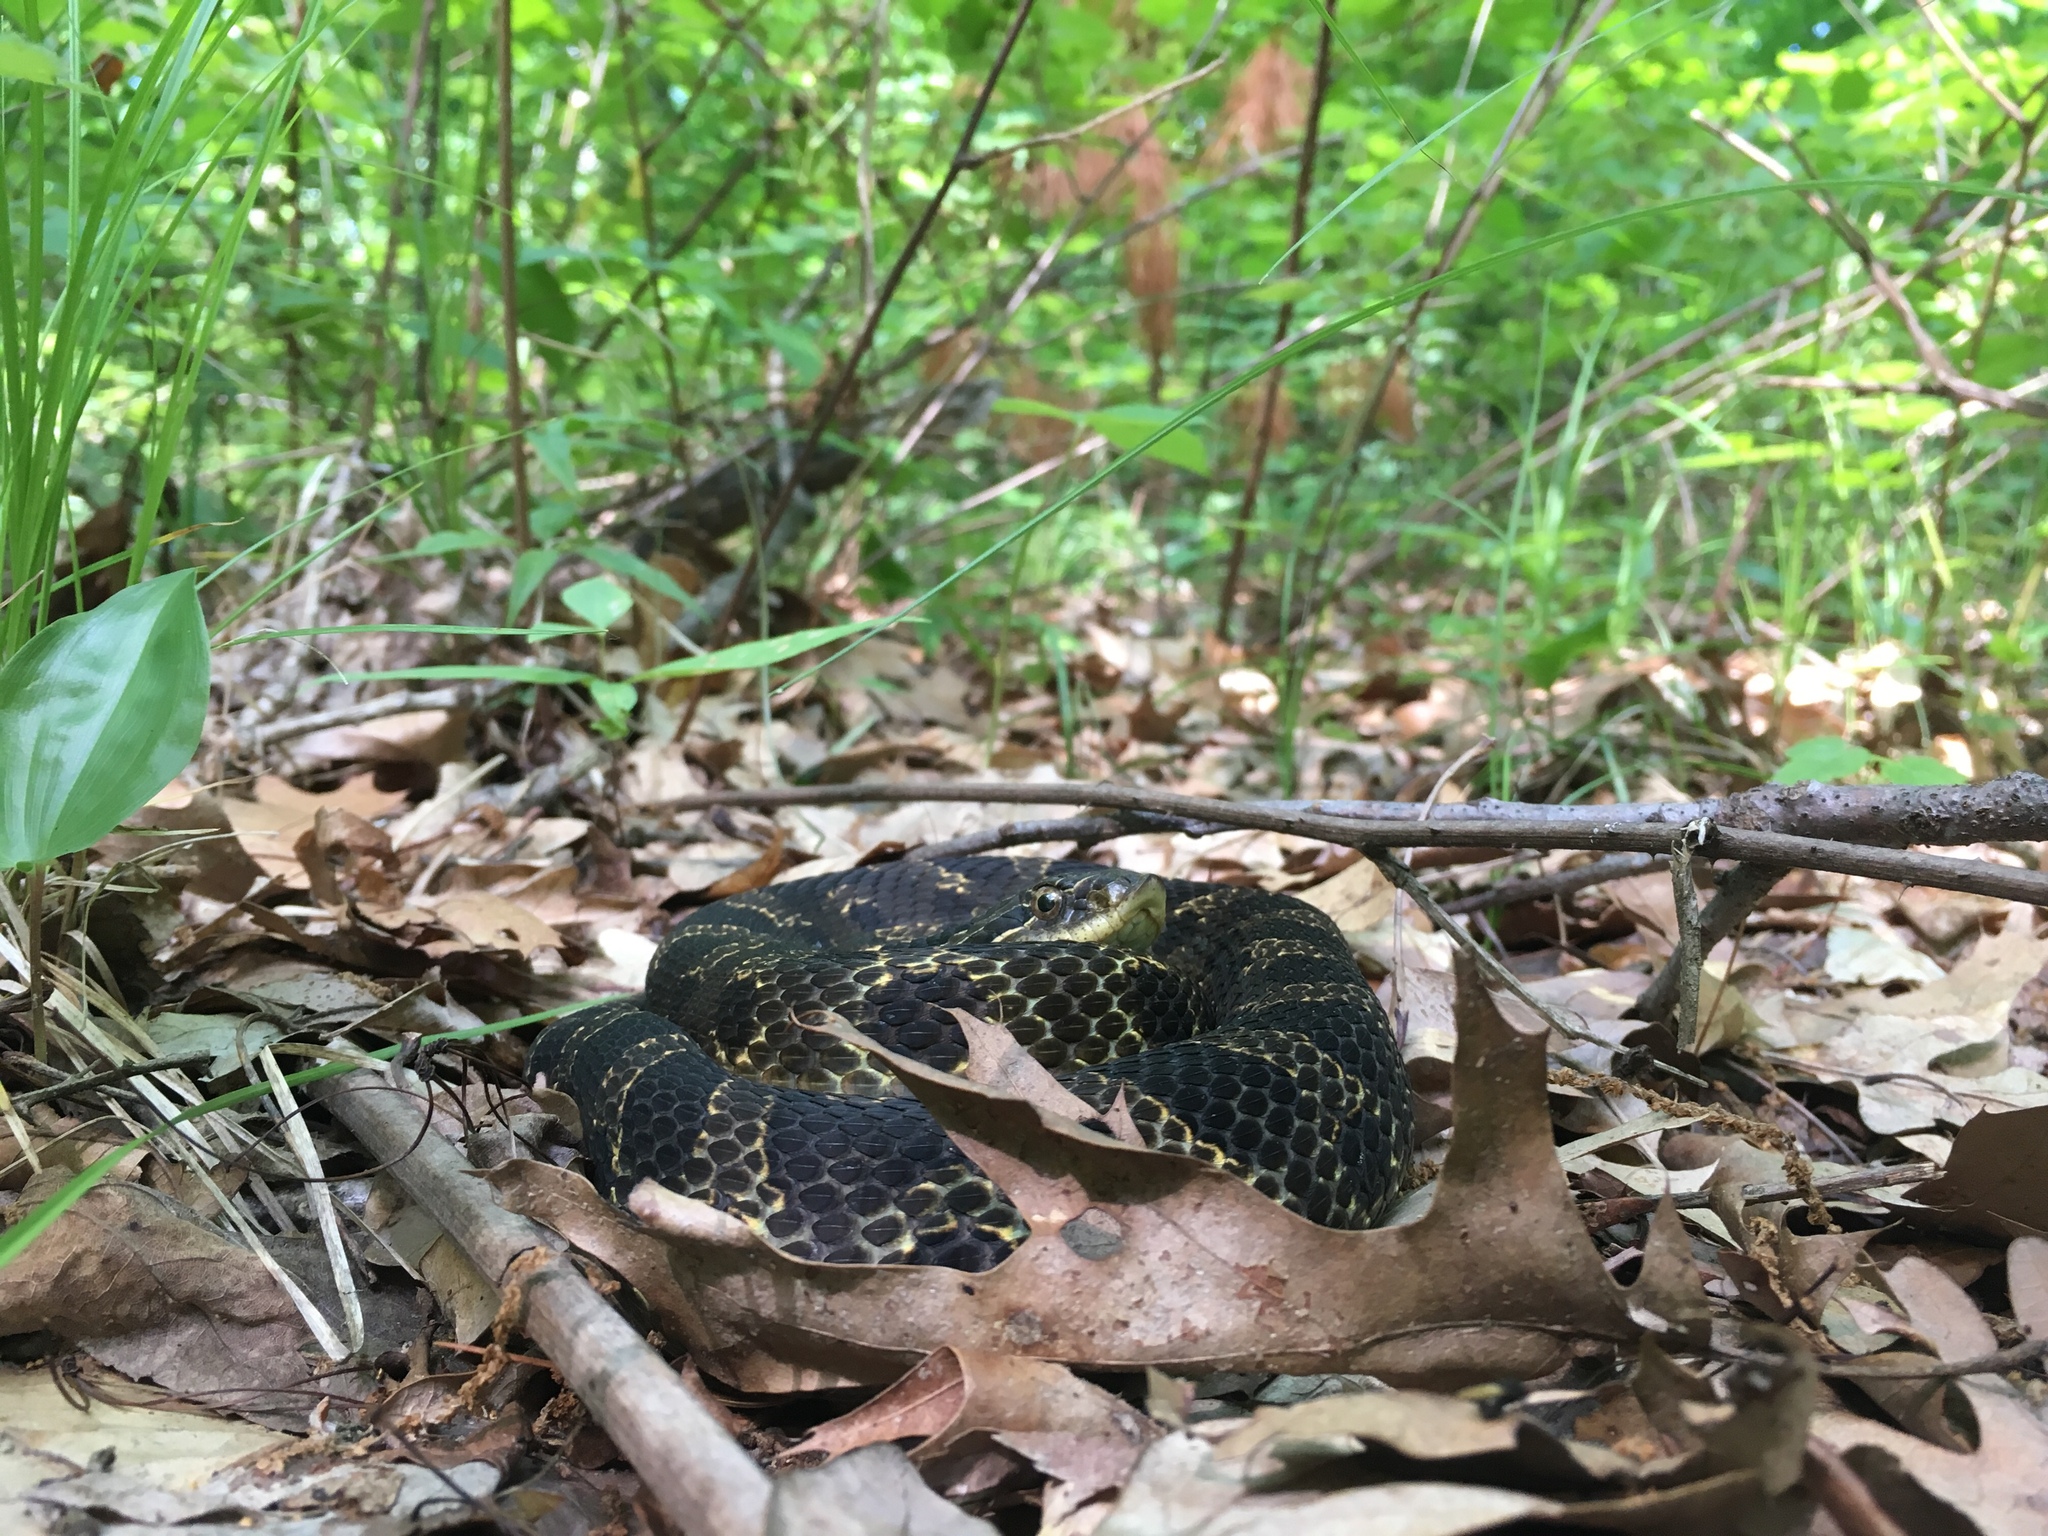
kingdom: Animalia
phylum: Chordata
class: Squamata
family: Colubridae
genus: Heterodon
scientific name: Heterodon platirhinos
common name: Eastern hognose snake
